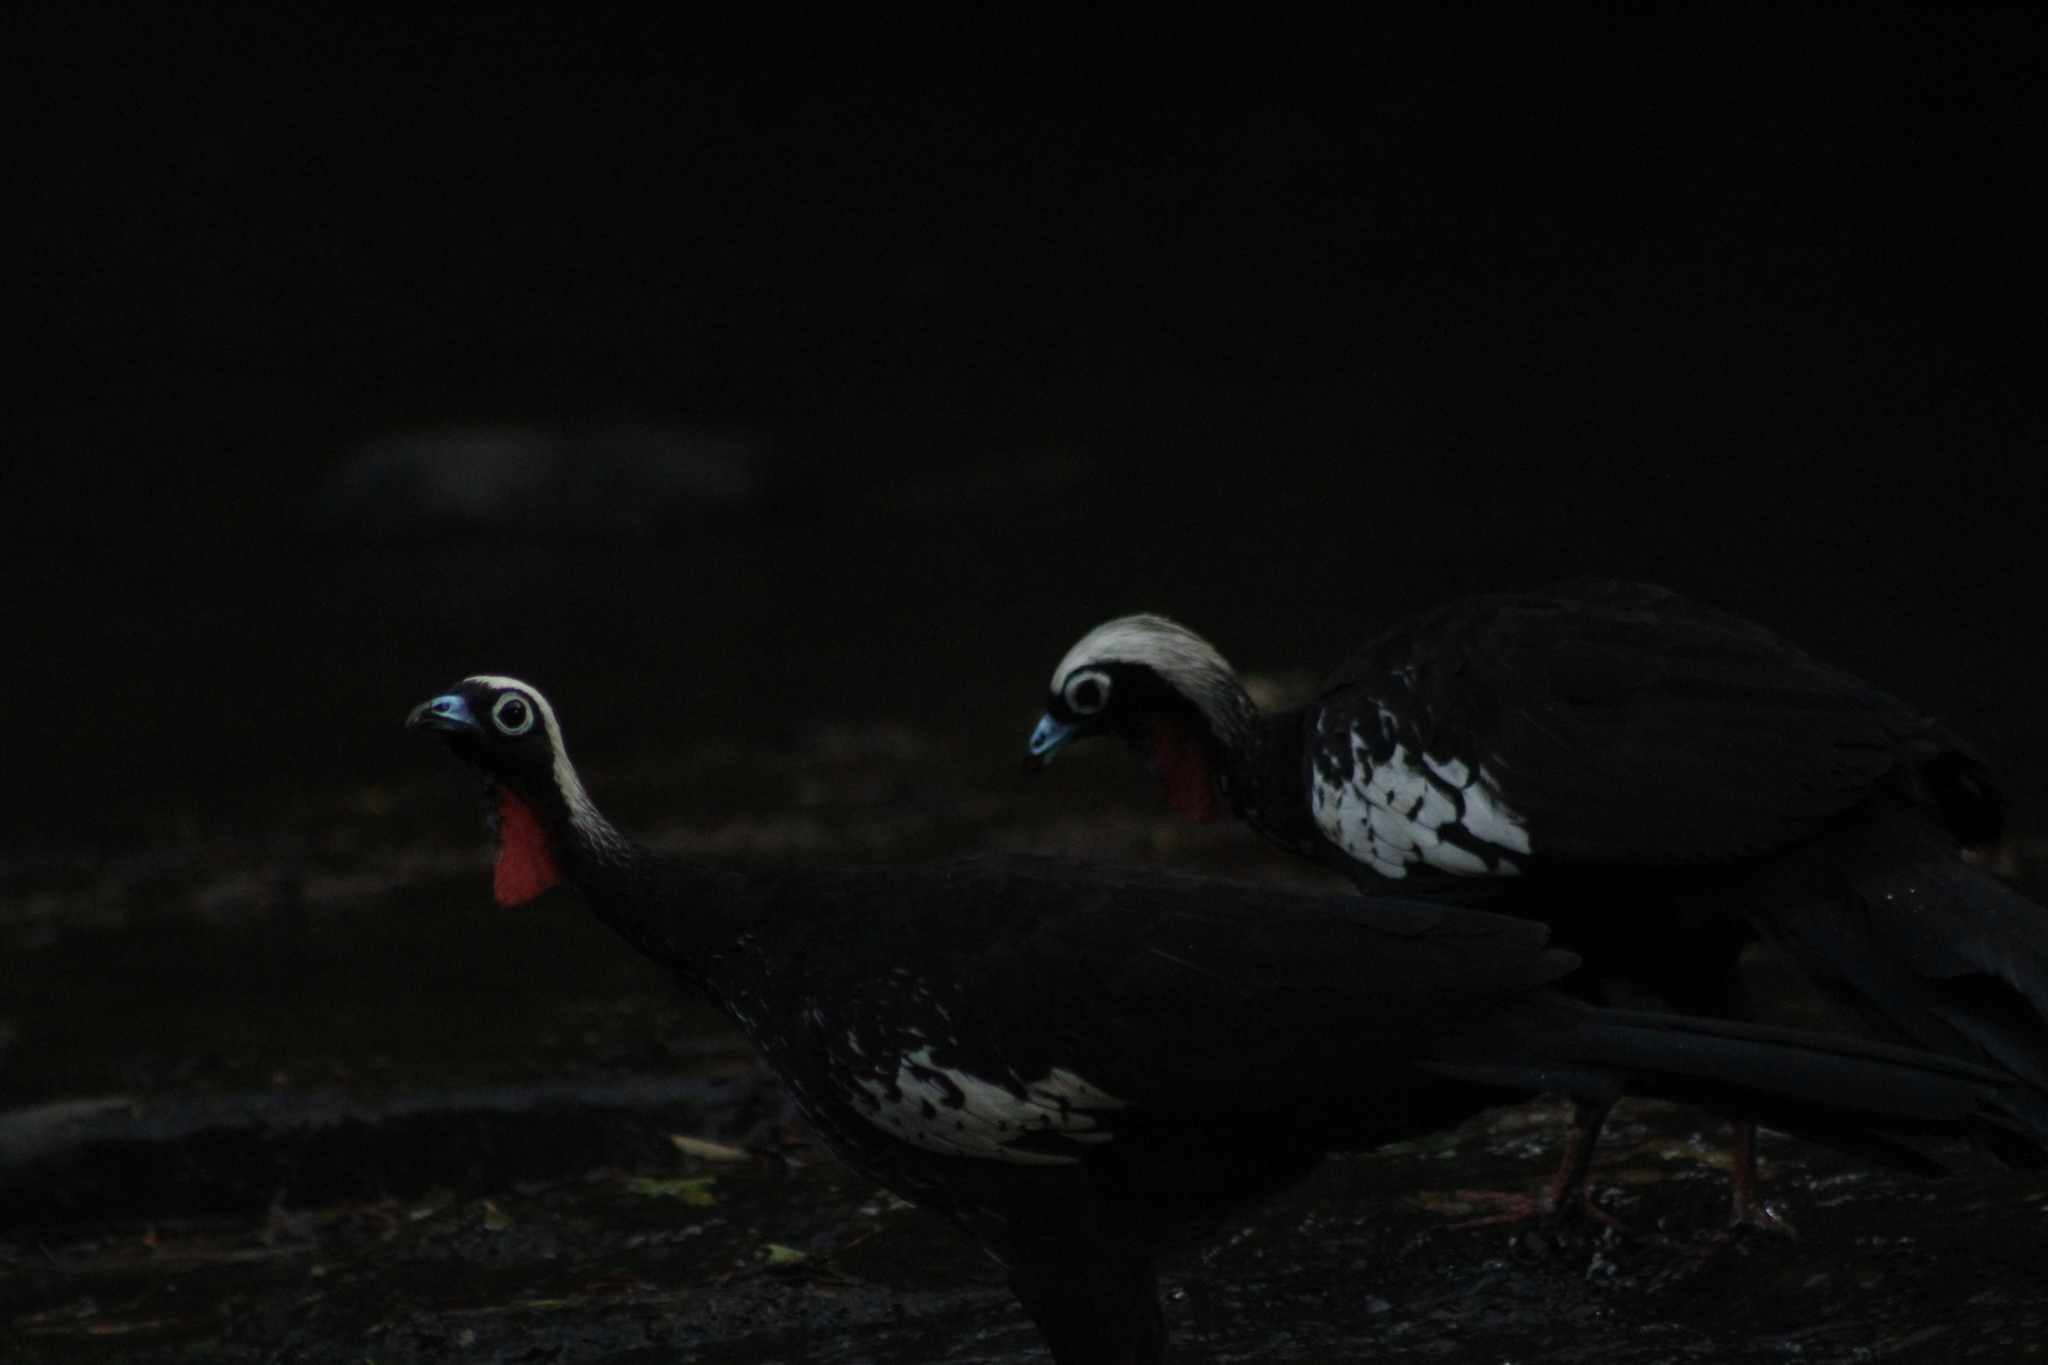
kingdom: Animalia
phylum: Chordata
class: Aves
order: Galliformes
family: Cracidae
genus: Pipile
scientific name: Pipile jacutinga
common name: Black-fronted piping-guan
